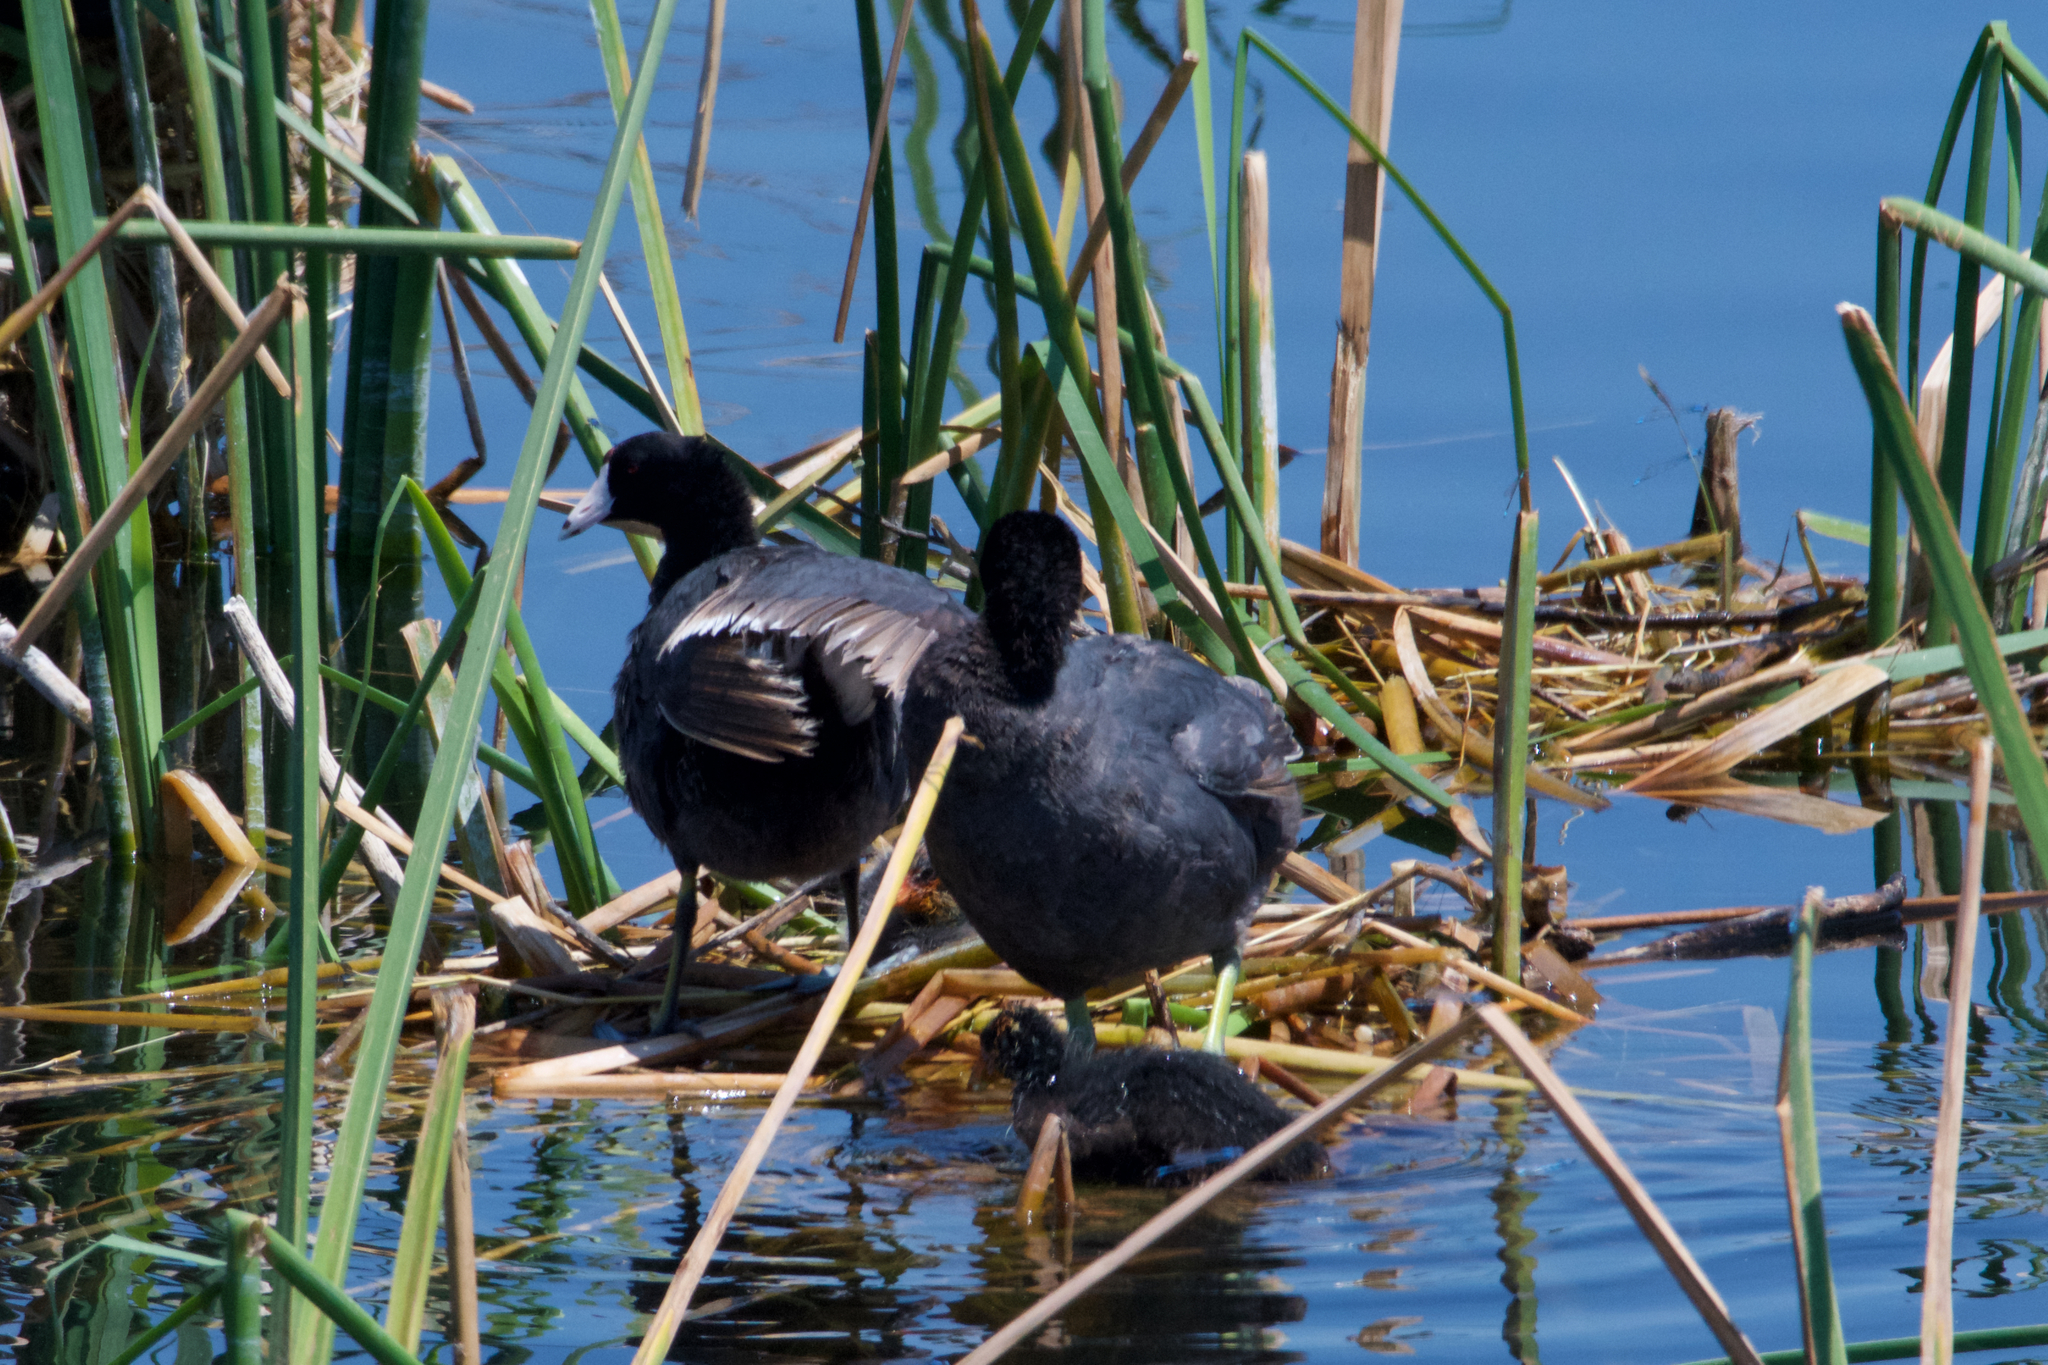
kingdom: Animalia
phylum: Chordata
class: Aves
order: Gruiformes
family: Rallidae
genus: Fulica
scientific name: Fulica americana
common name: American coot
